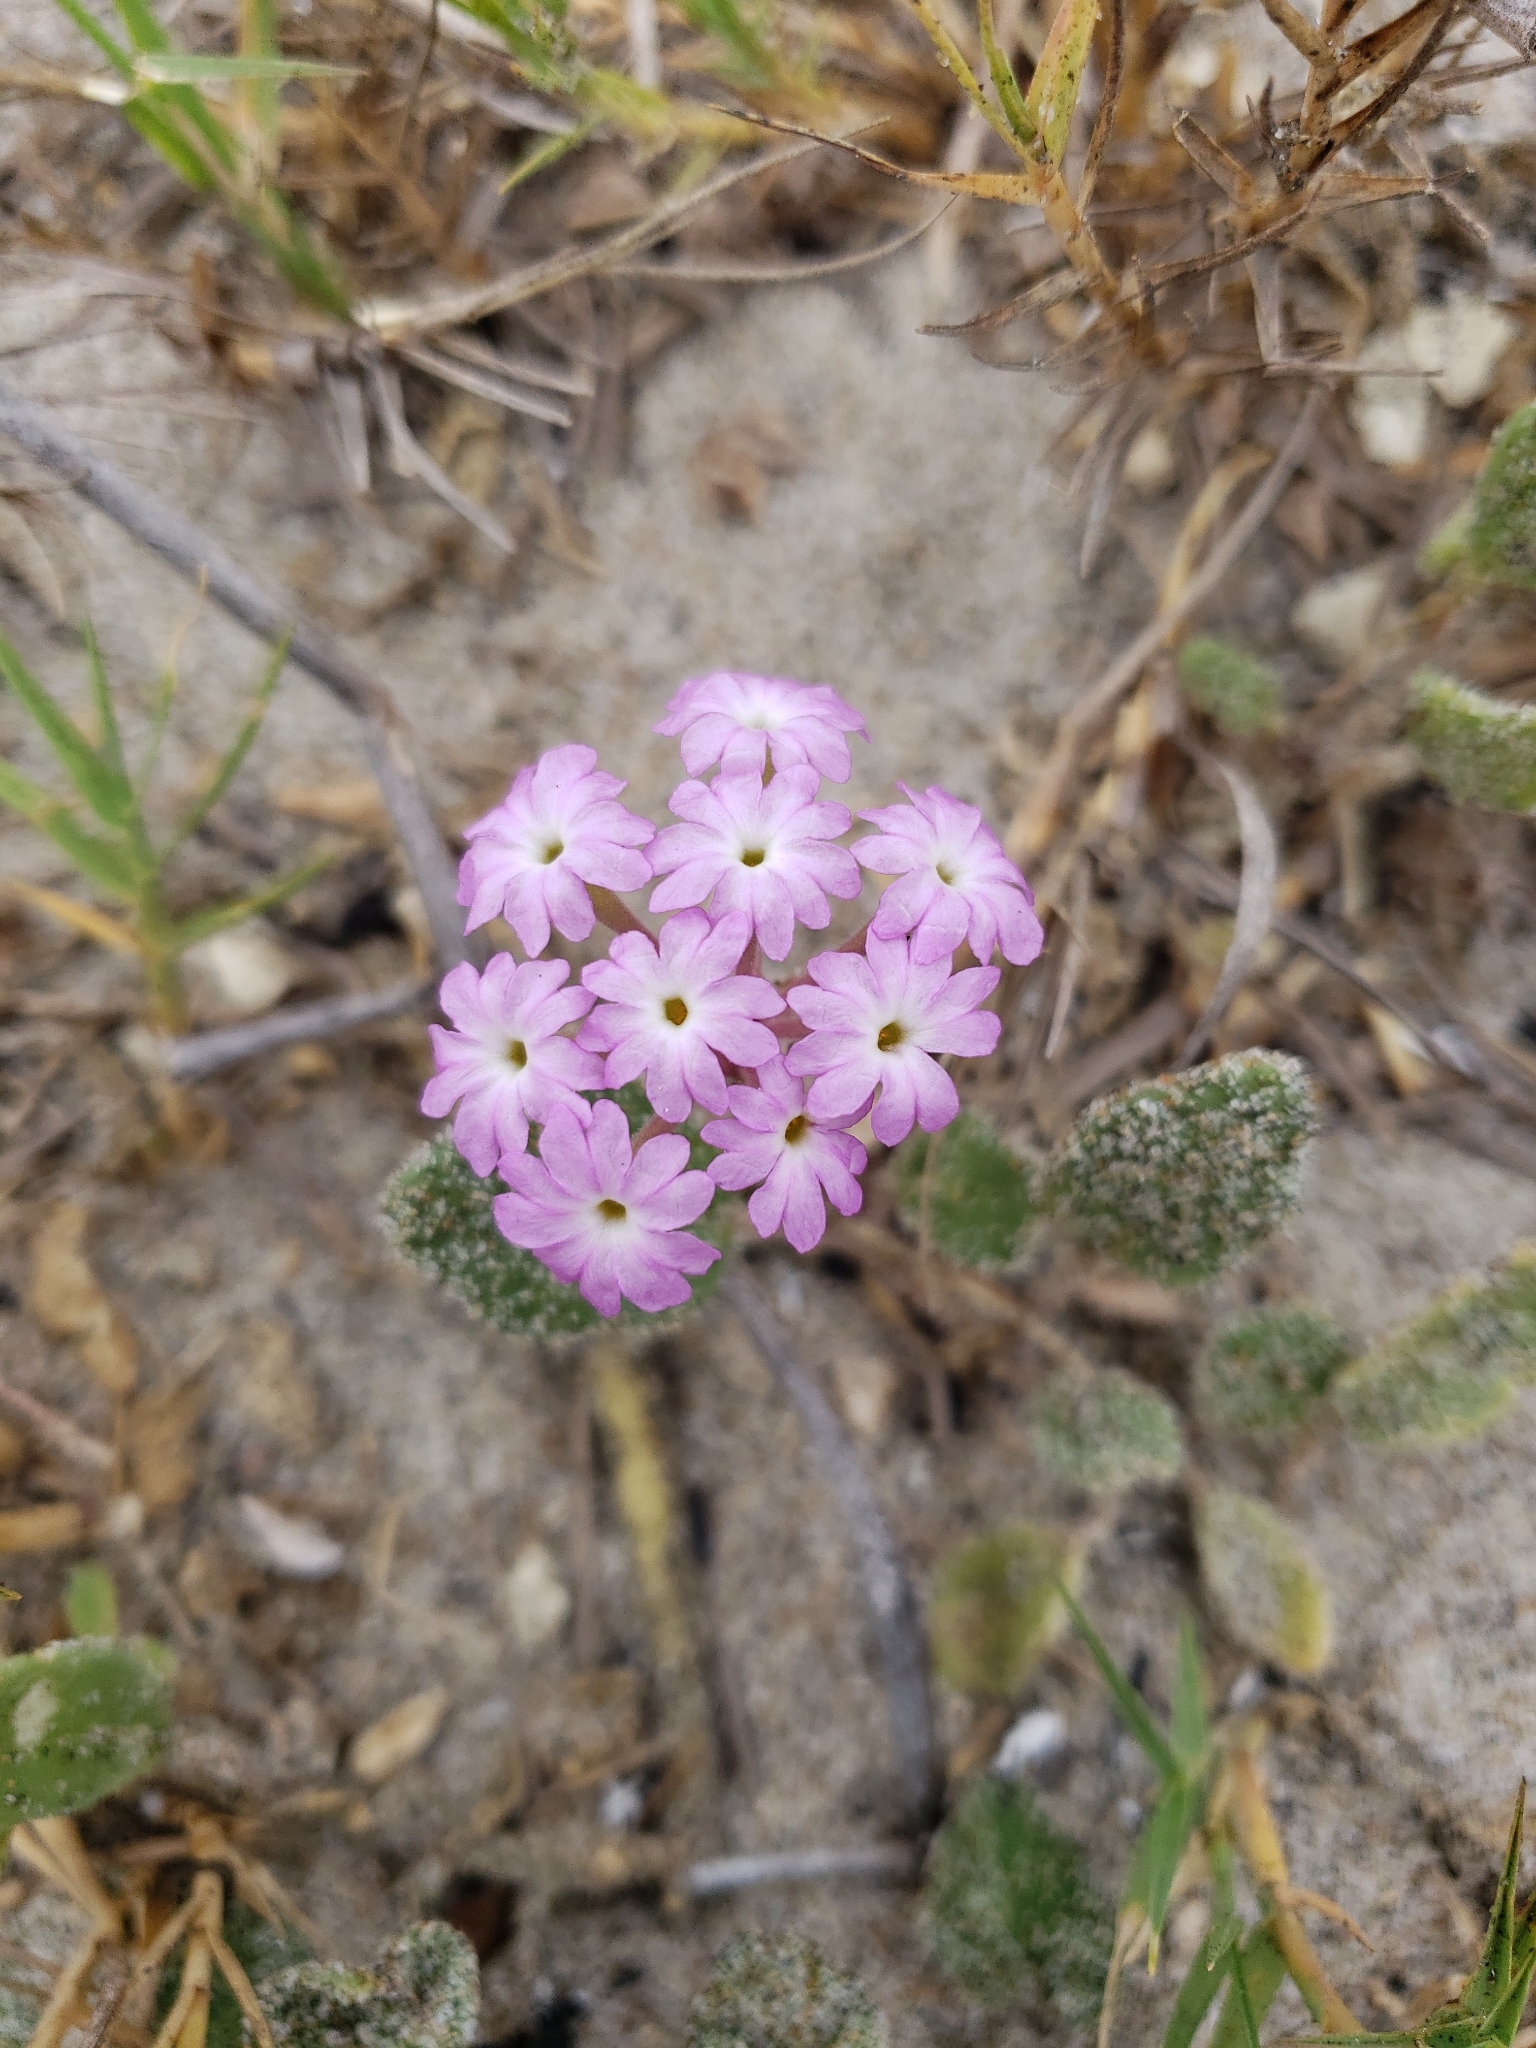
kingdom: Plantae
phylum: Tracheophyta
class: Magnoliopsida
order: Caryophyllales
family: Nyctaginaceae
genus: Abronia
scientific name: Abronia umbellata
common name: Sand-verbena
